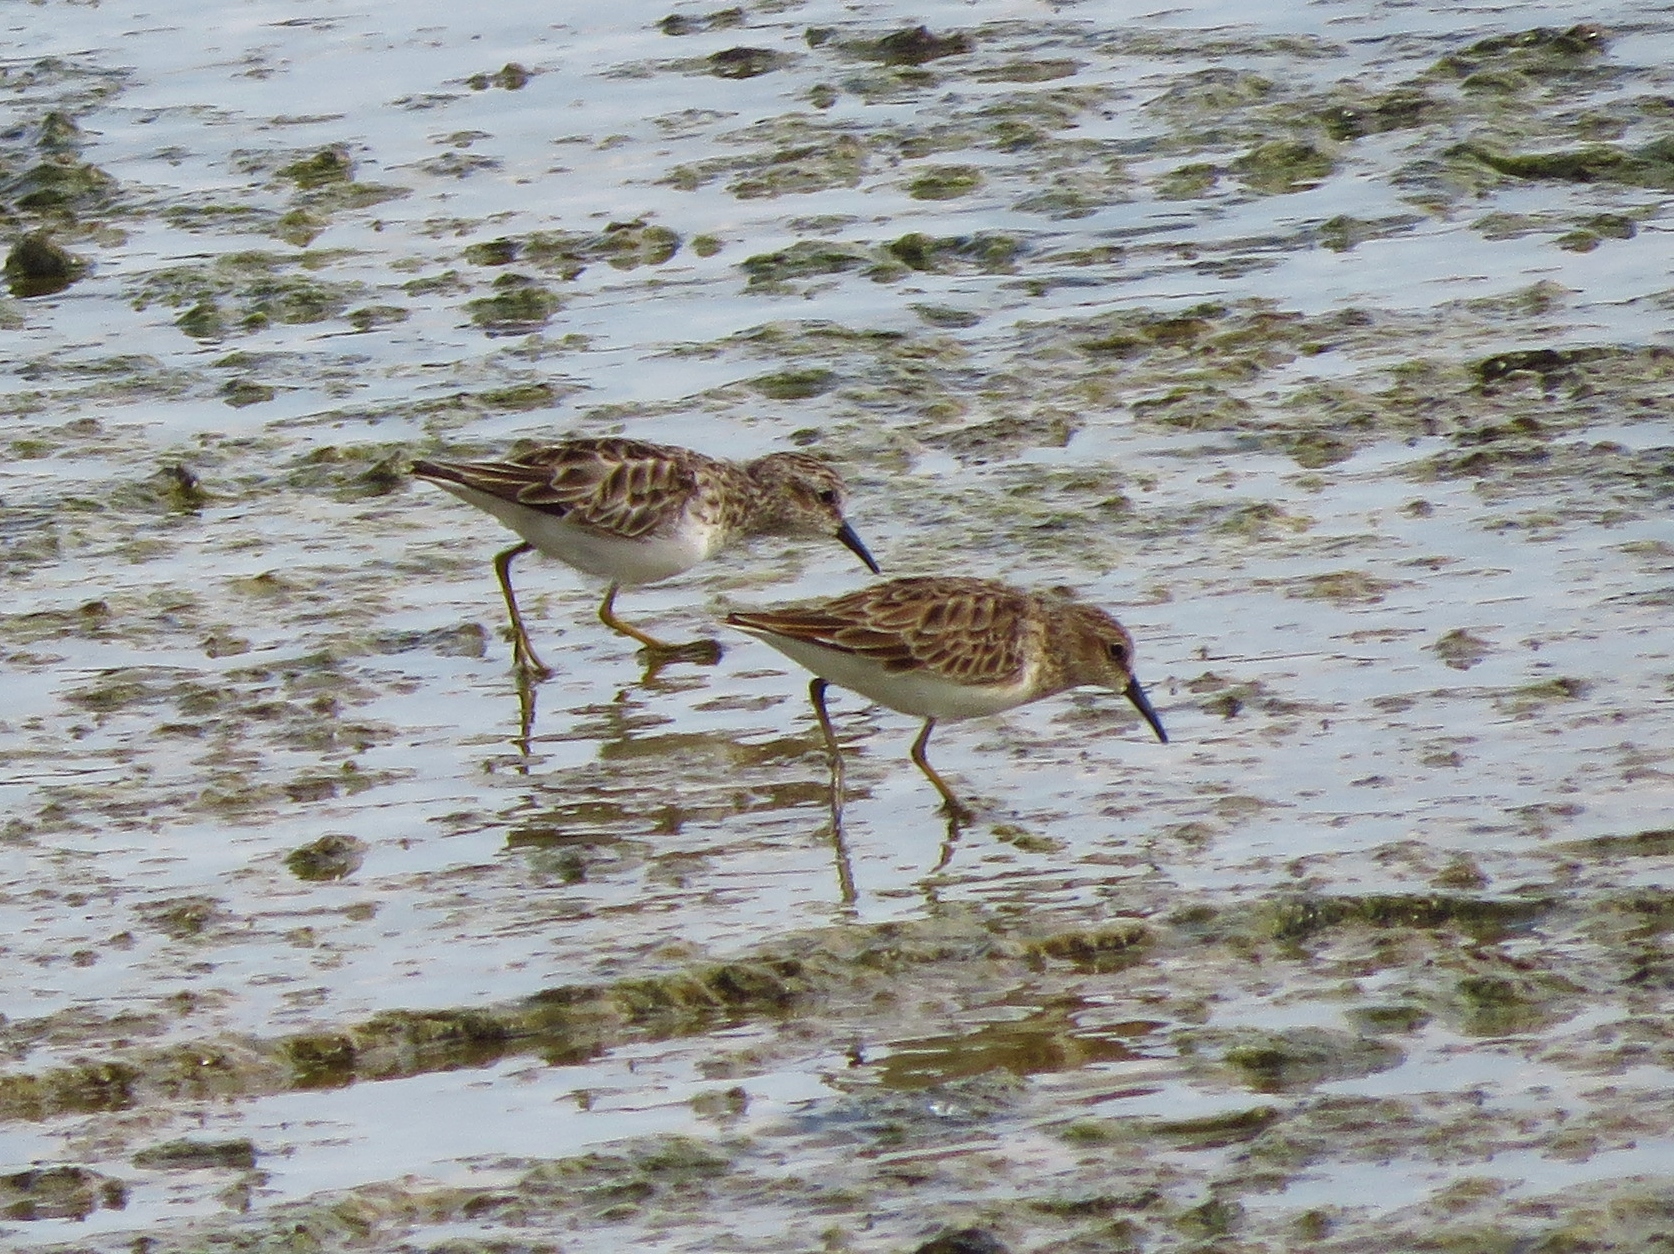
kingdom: Animalia
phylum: Chordata
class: Aves
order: Charadriiformes
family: Scolopacidae
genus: Calidris
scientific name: Calidris minutilla
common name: Least sandpiper
